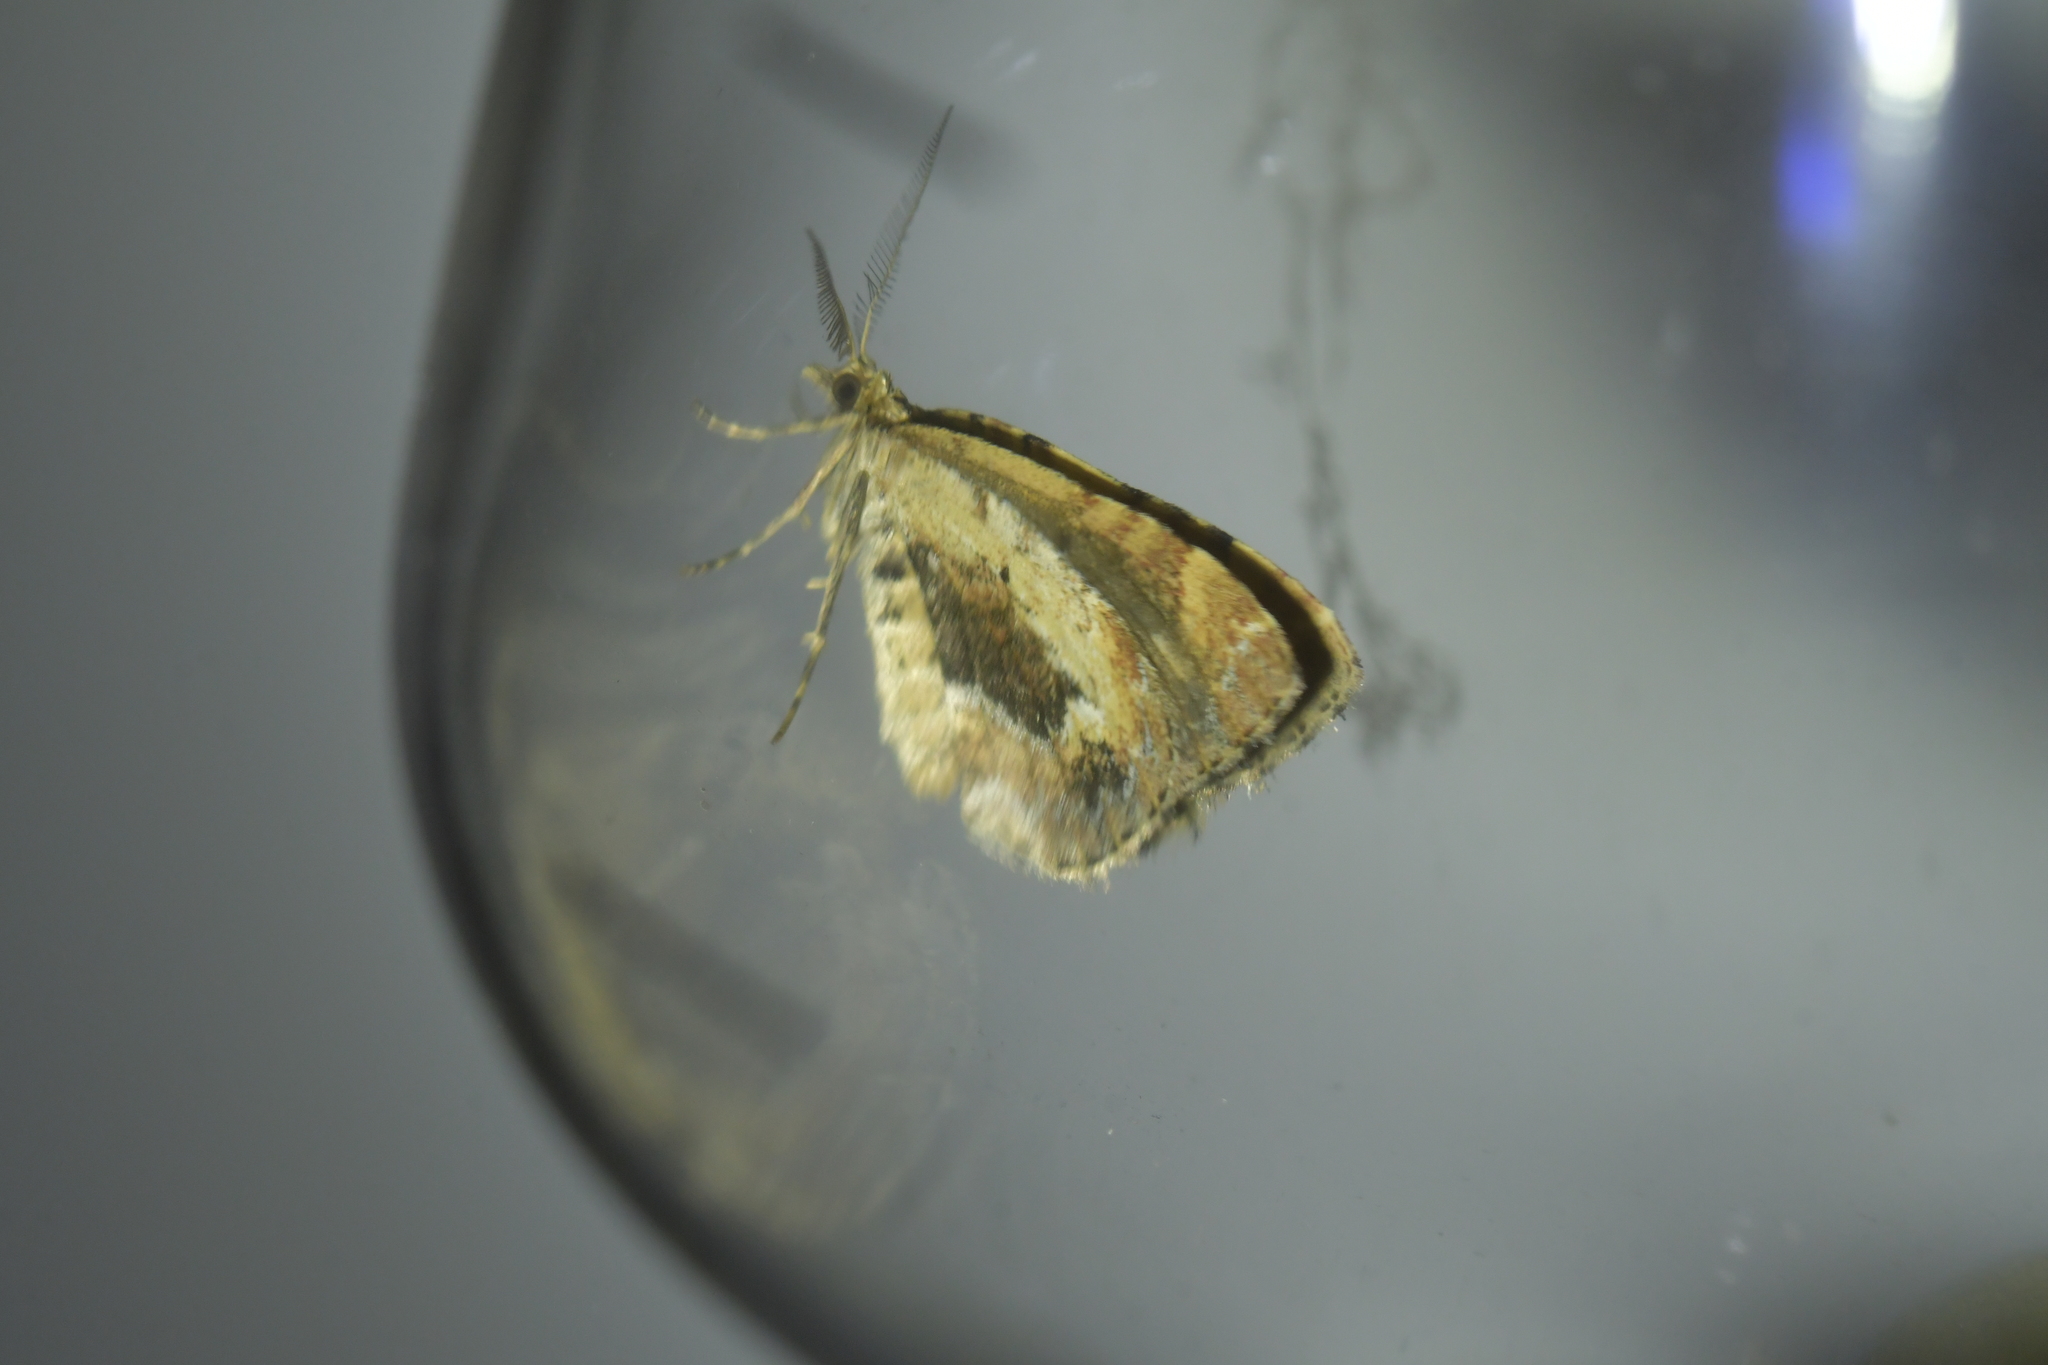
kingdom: Animalia
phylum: Arthropoda
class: Insecta
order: Lepidoptera
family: Geometridae
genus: Asaphodes
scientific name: Asaphodes aegrota
